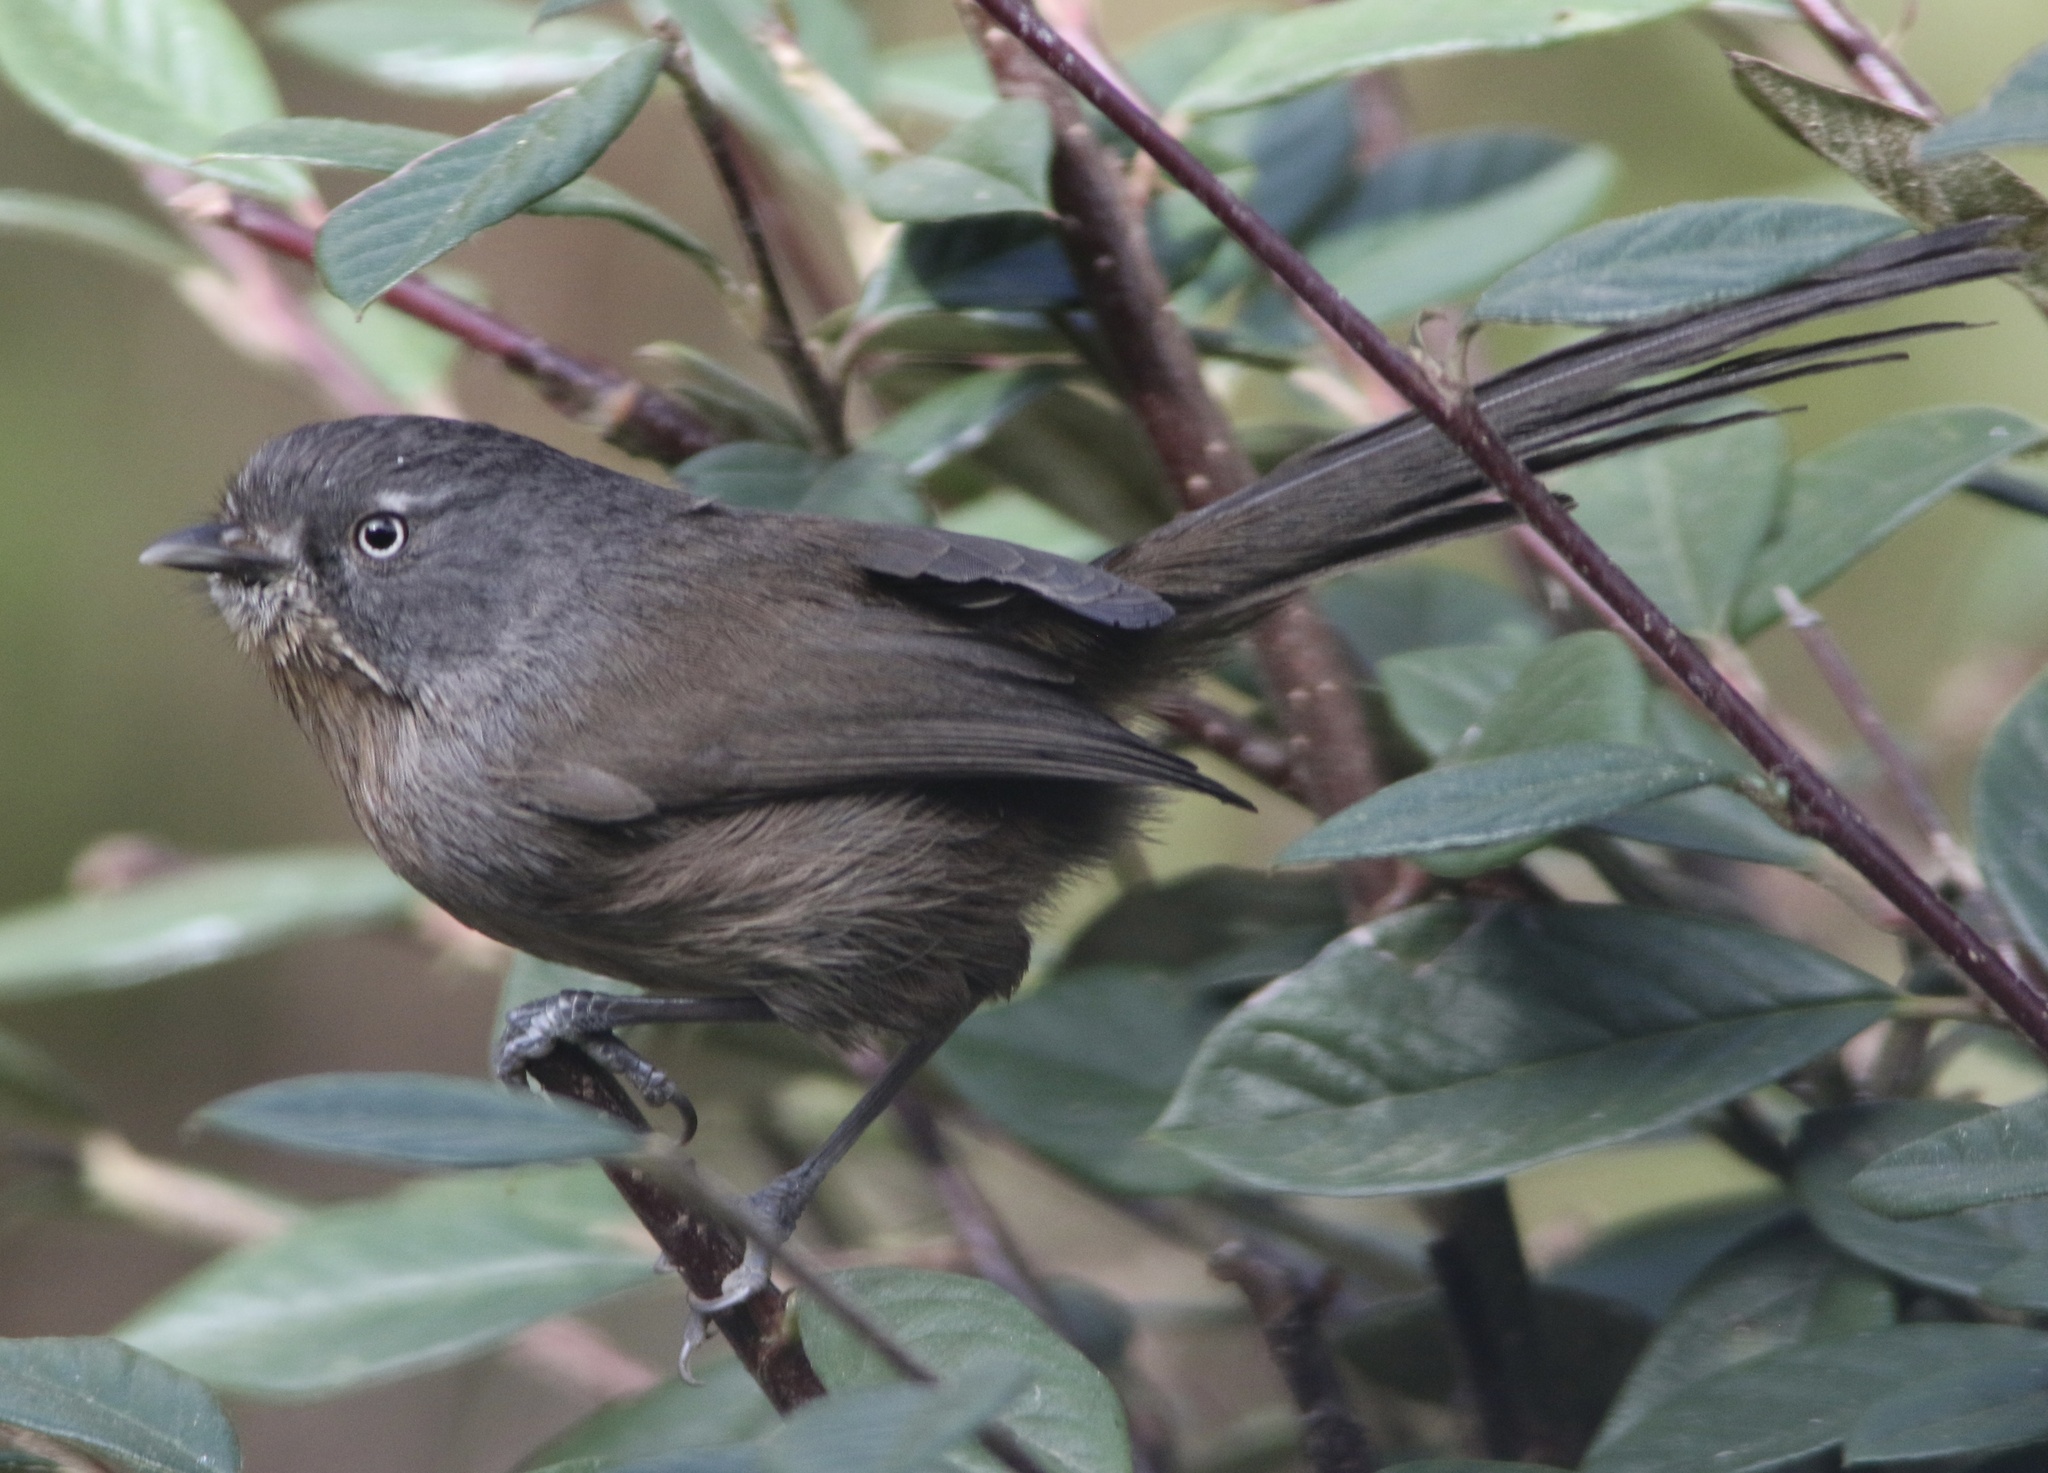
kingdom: Animalia
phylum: Chordata
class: Aves
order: Passeriformes
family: Sylviidae
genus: Chamaea
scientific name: Chamaea fasciata
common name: Wrentit
